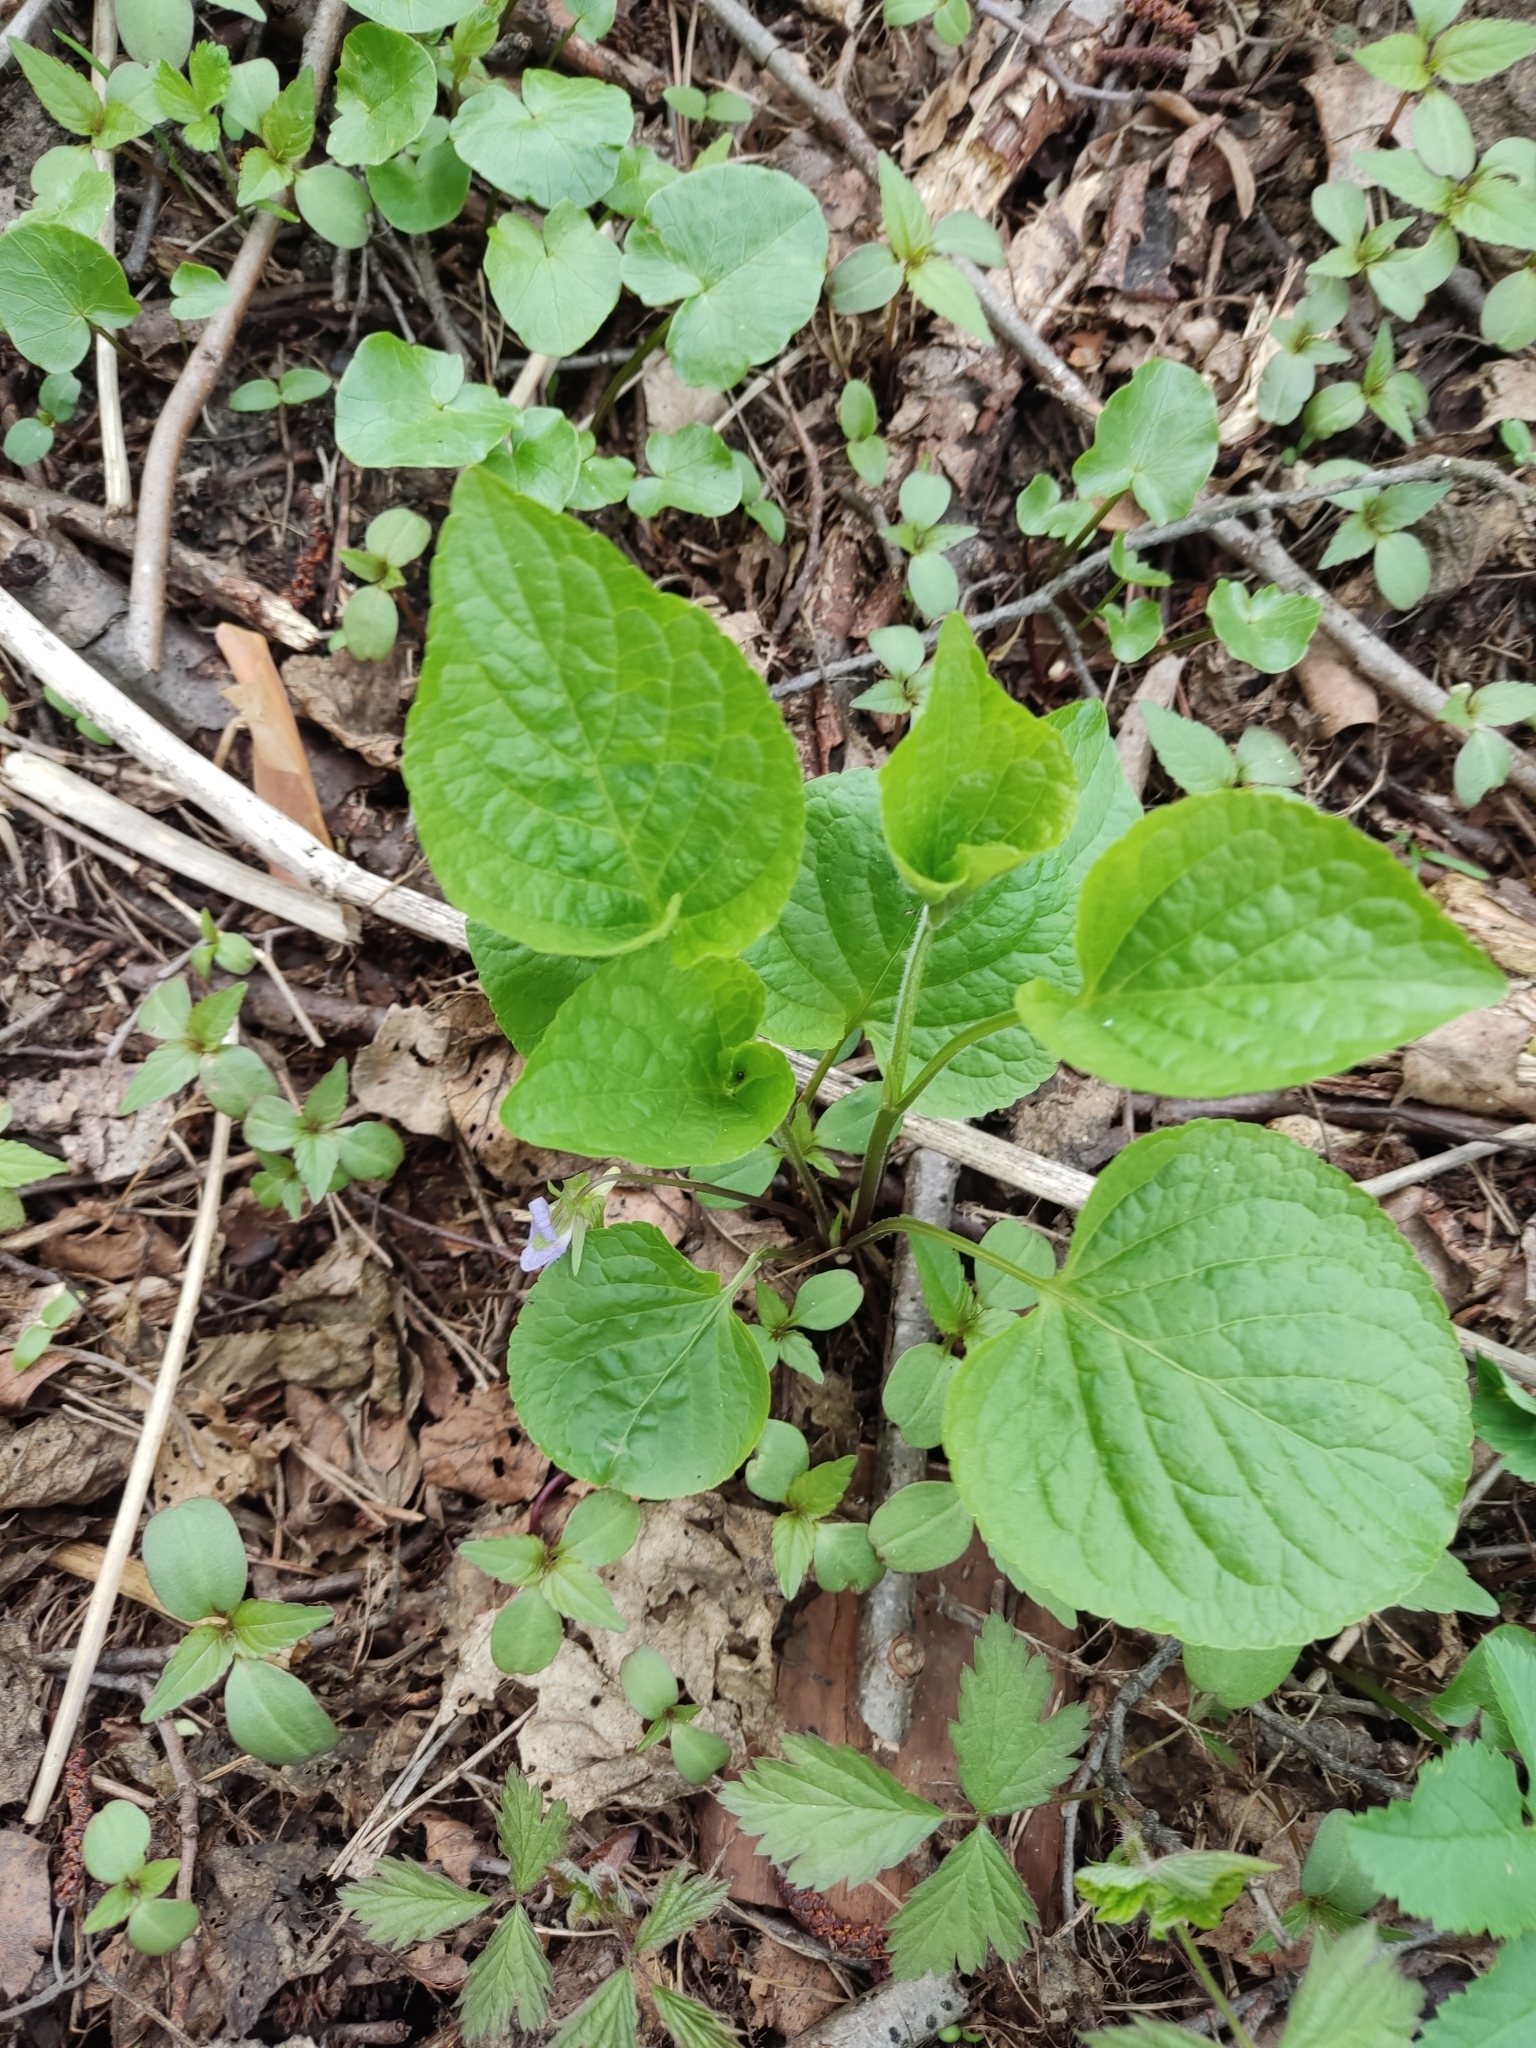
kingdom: Plantae
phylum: Tracheophyta
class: Magnoliopsida
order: Malpighiales
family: Violaceae
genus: Viola
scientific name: Viola mirabilis
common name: Wonder violet
